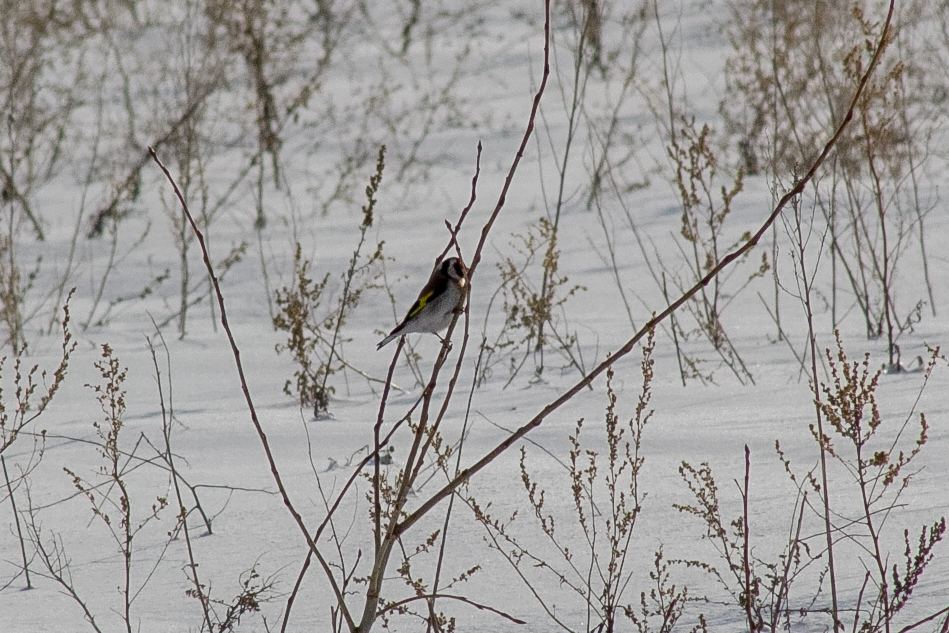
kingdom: Animalia
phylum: Chordata
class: Aves
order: Passeriformes
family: Fringillidae
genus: Carduelis
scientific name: Carduelis carduelis
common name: European goldfinch
